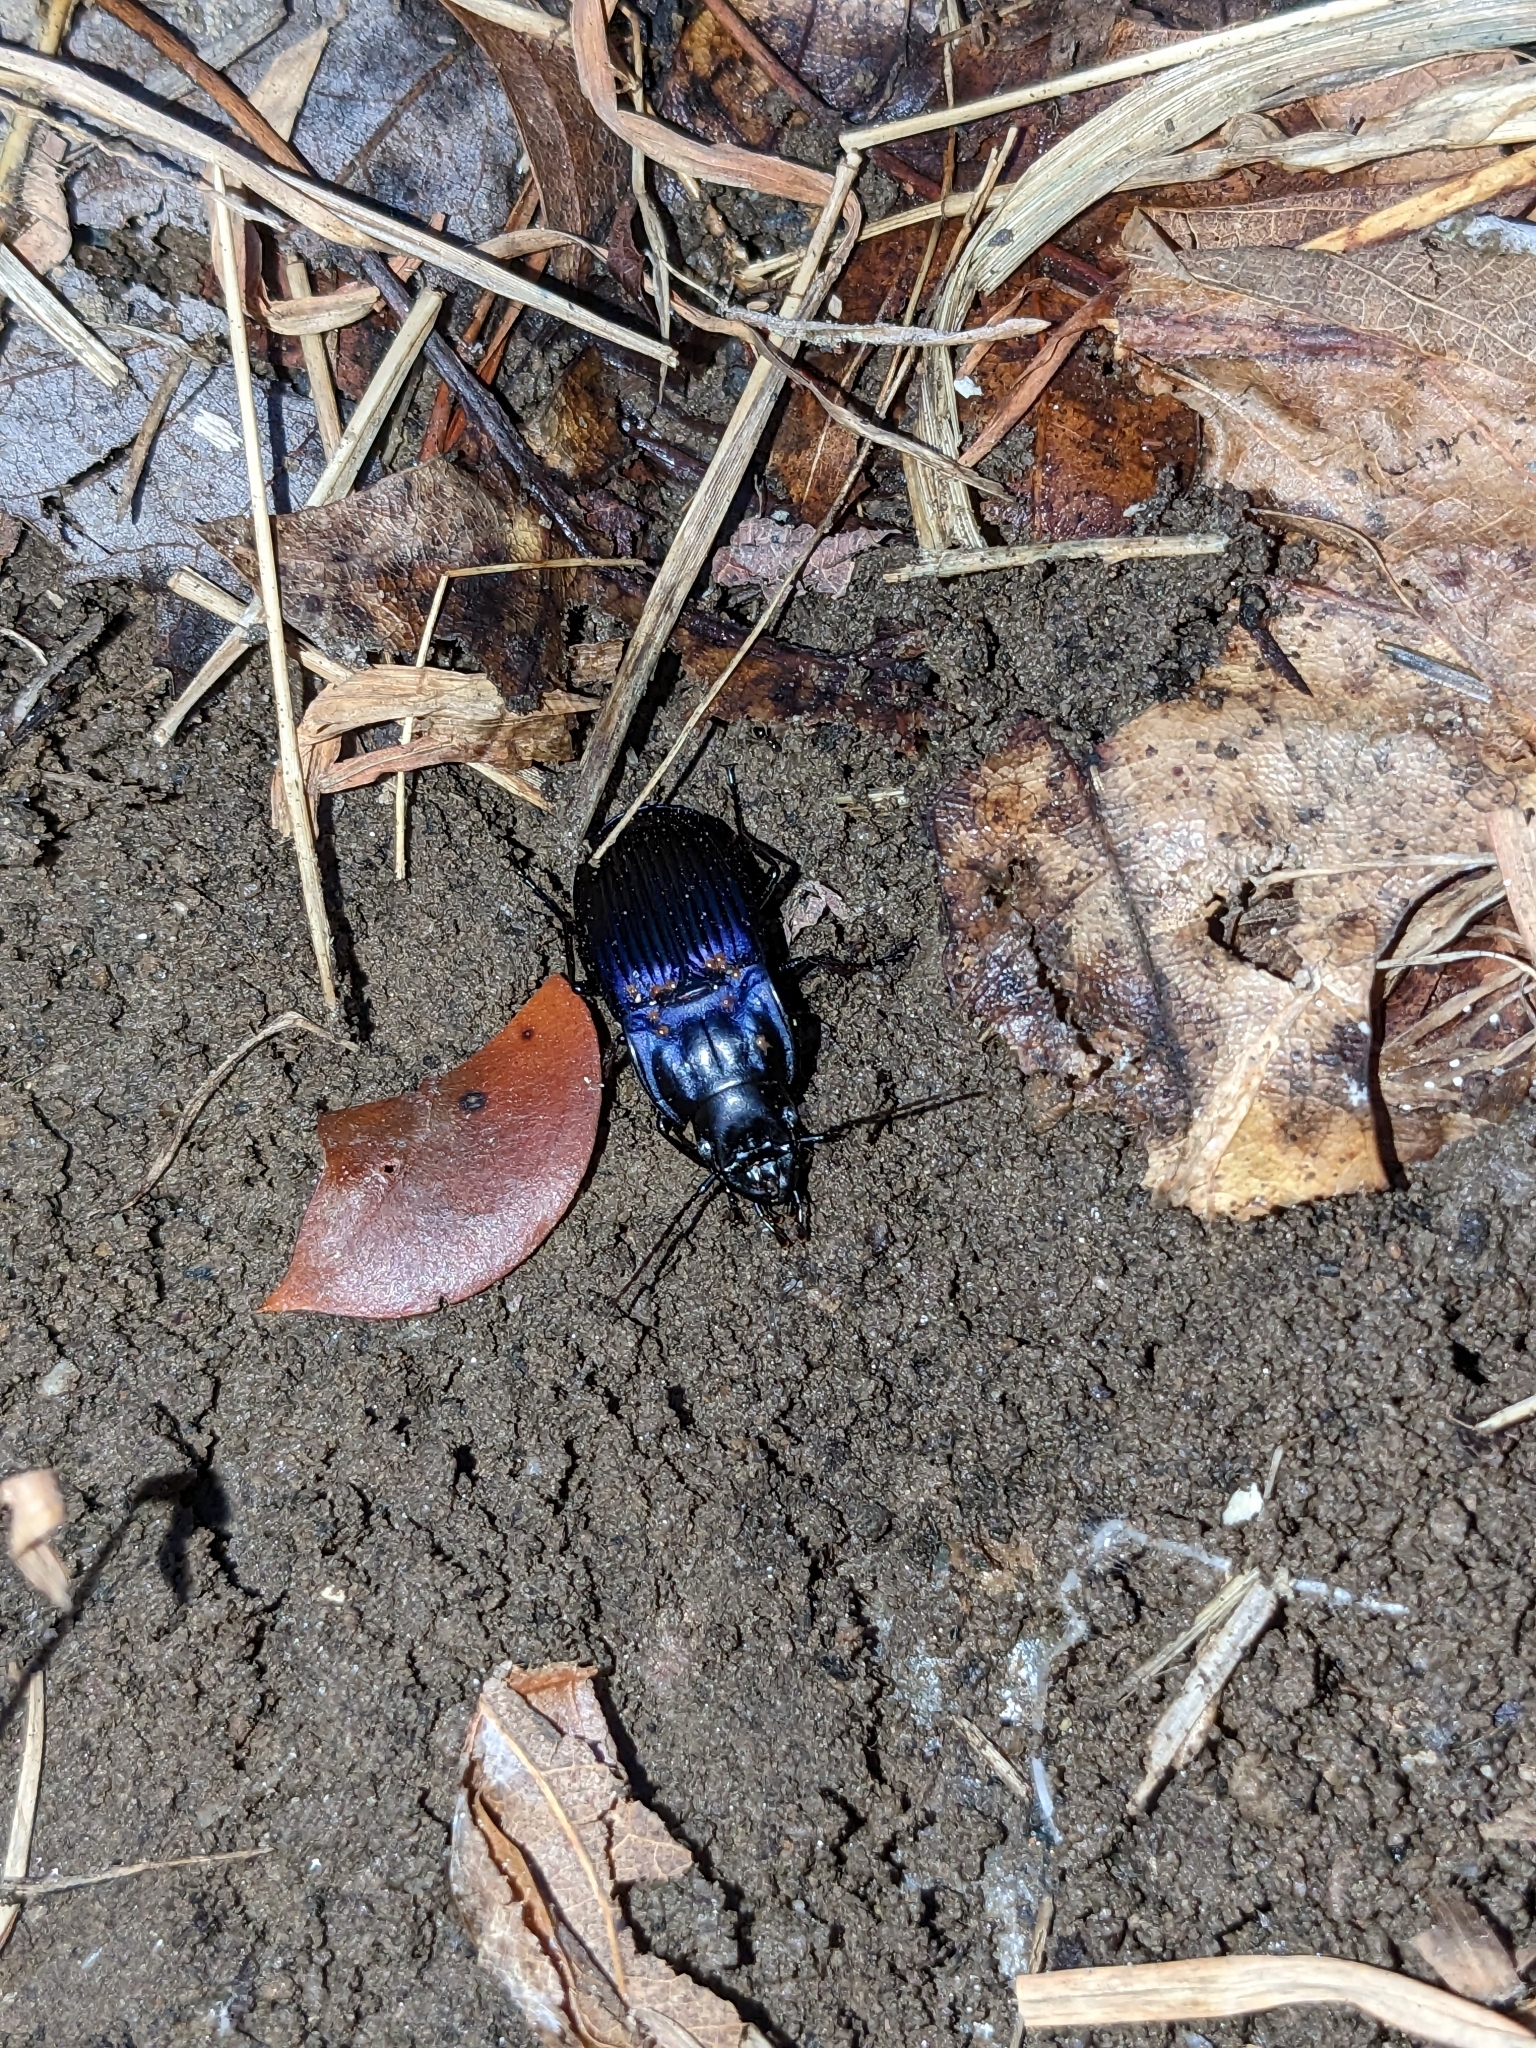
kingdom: Animalia
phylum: Arthropoda
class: Insecta
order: Coleoptera
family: Carabidae
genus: Dicaelus
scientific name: Dicaelus purpuratus
